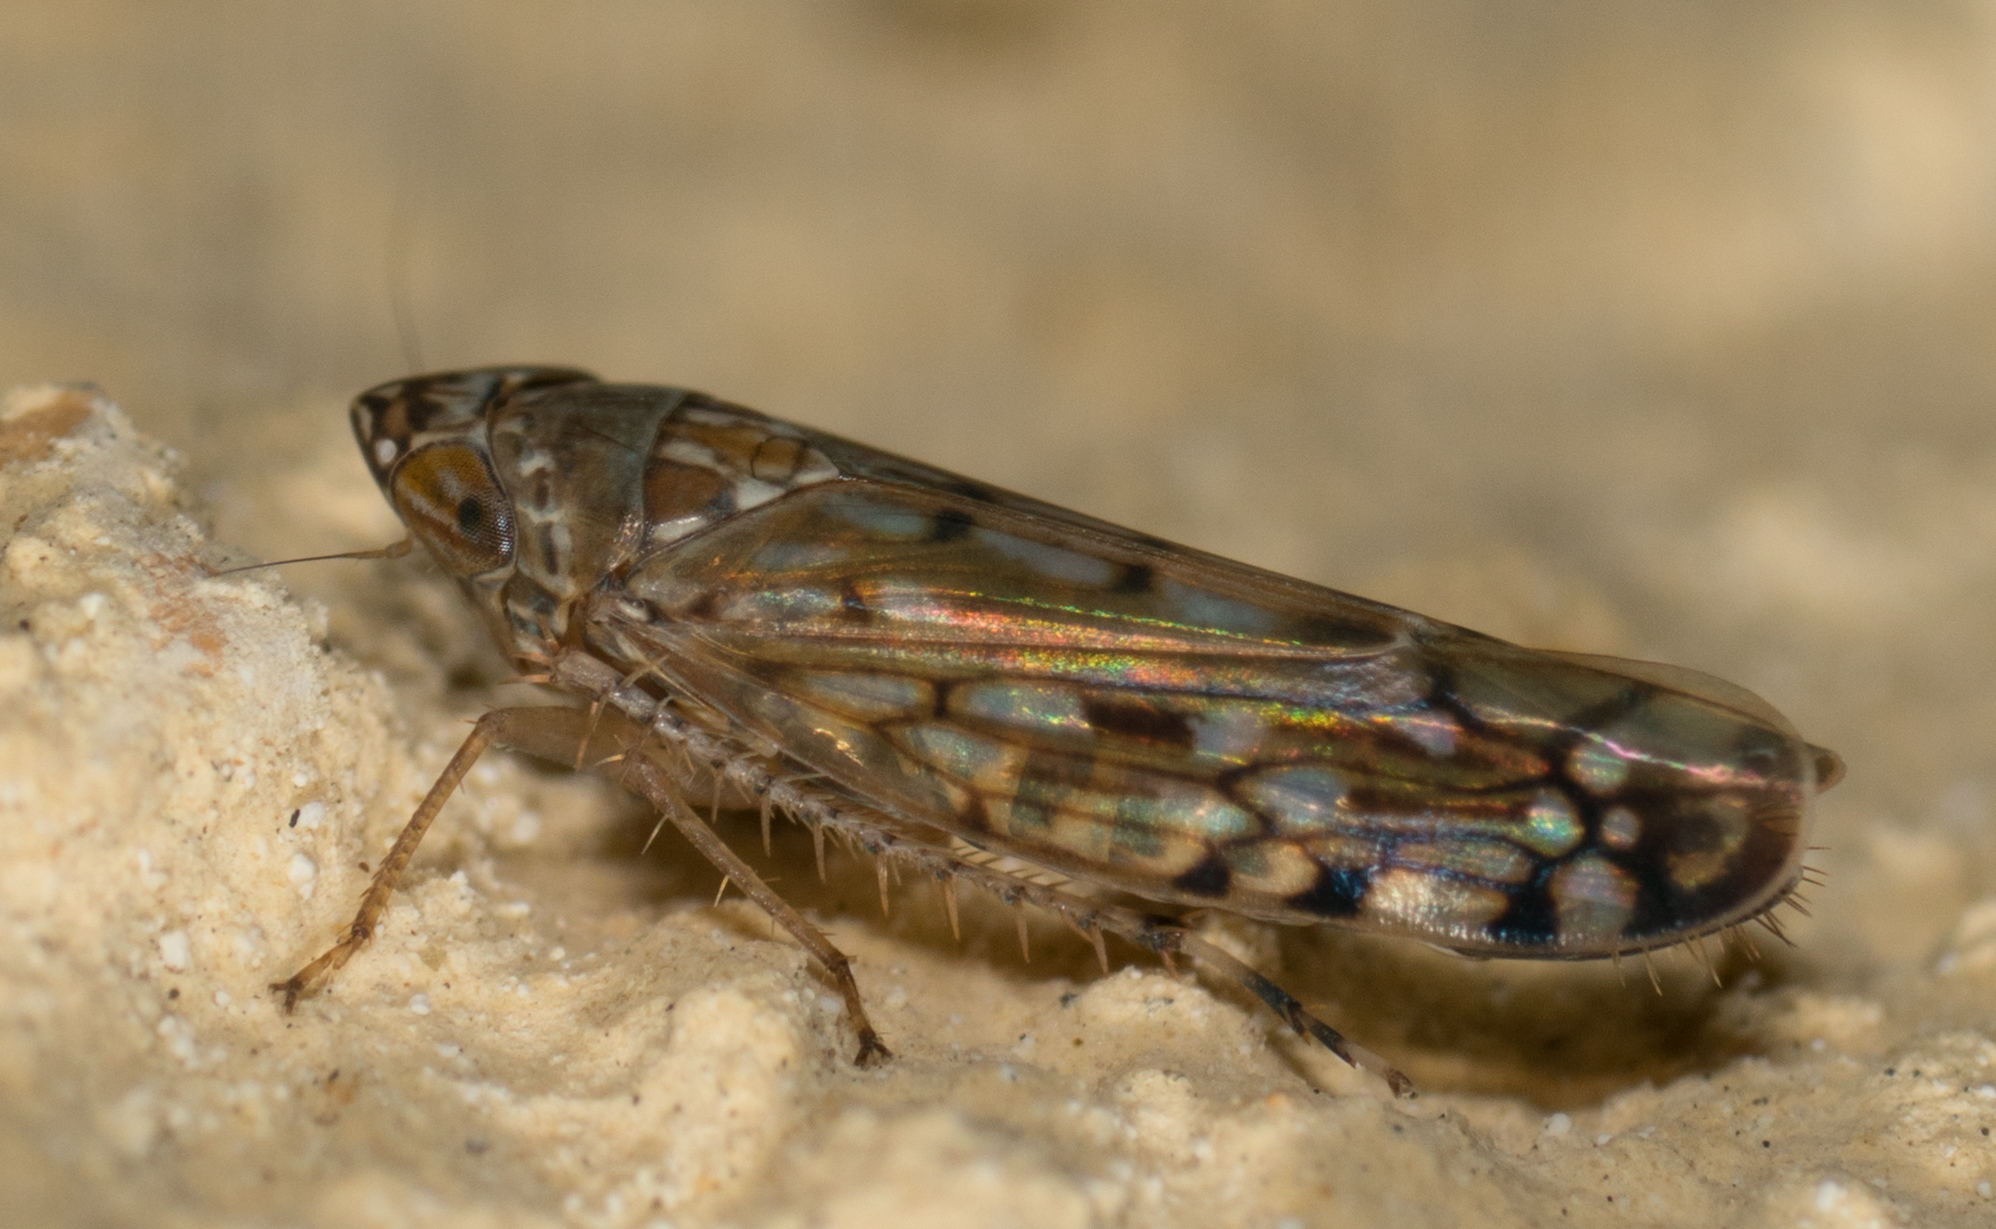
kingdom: Animalia
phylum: Arthropoda
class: Insecta
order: Hemiptera
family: Cicadellidae
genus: Osbornellus
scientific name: Osbornellus scalaris
